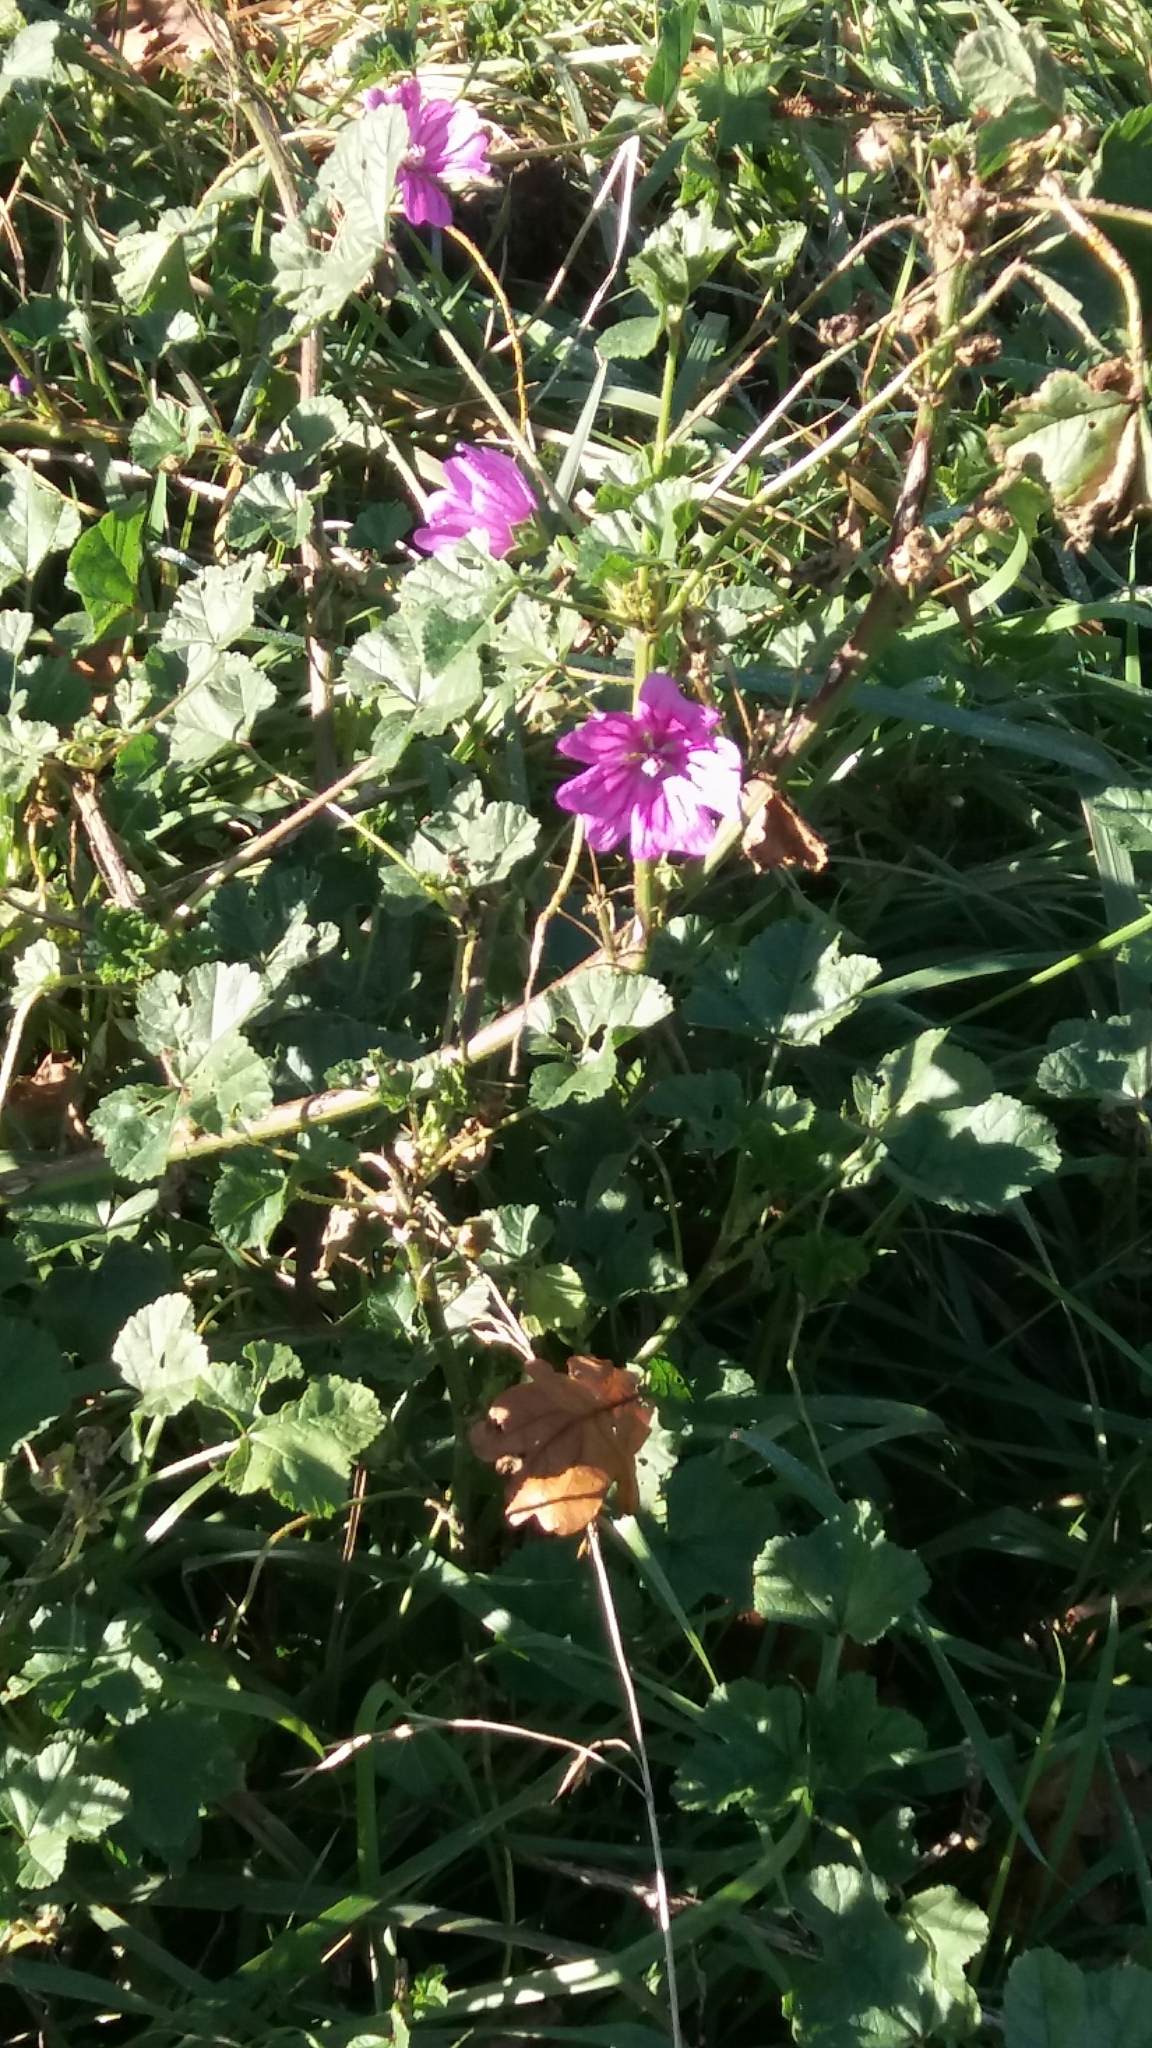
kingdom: Plantae
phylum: Tracheophyta
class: Magnoliopsida
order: Malvales
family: Malvaceae
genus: Malva
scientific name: Malva sylvestris
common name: Common mallow
